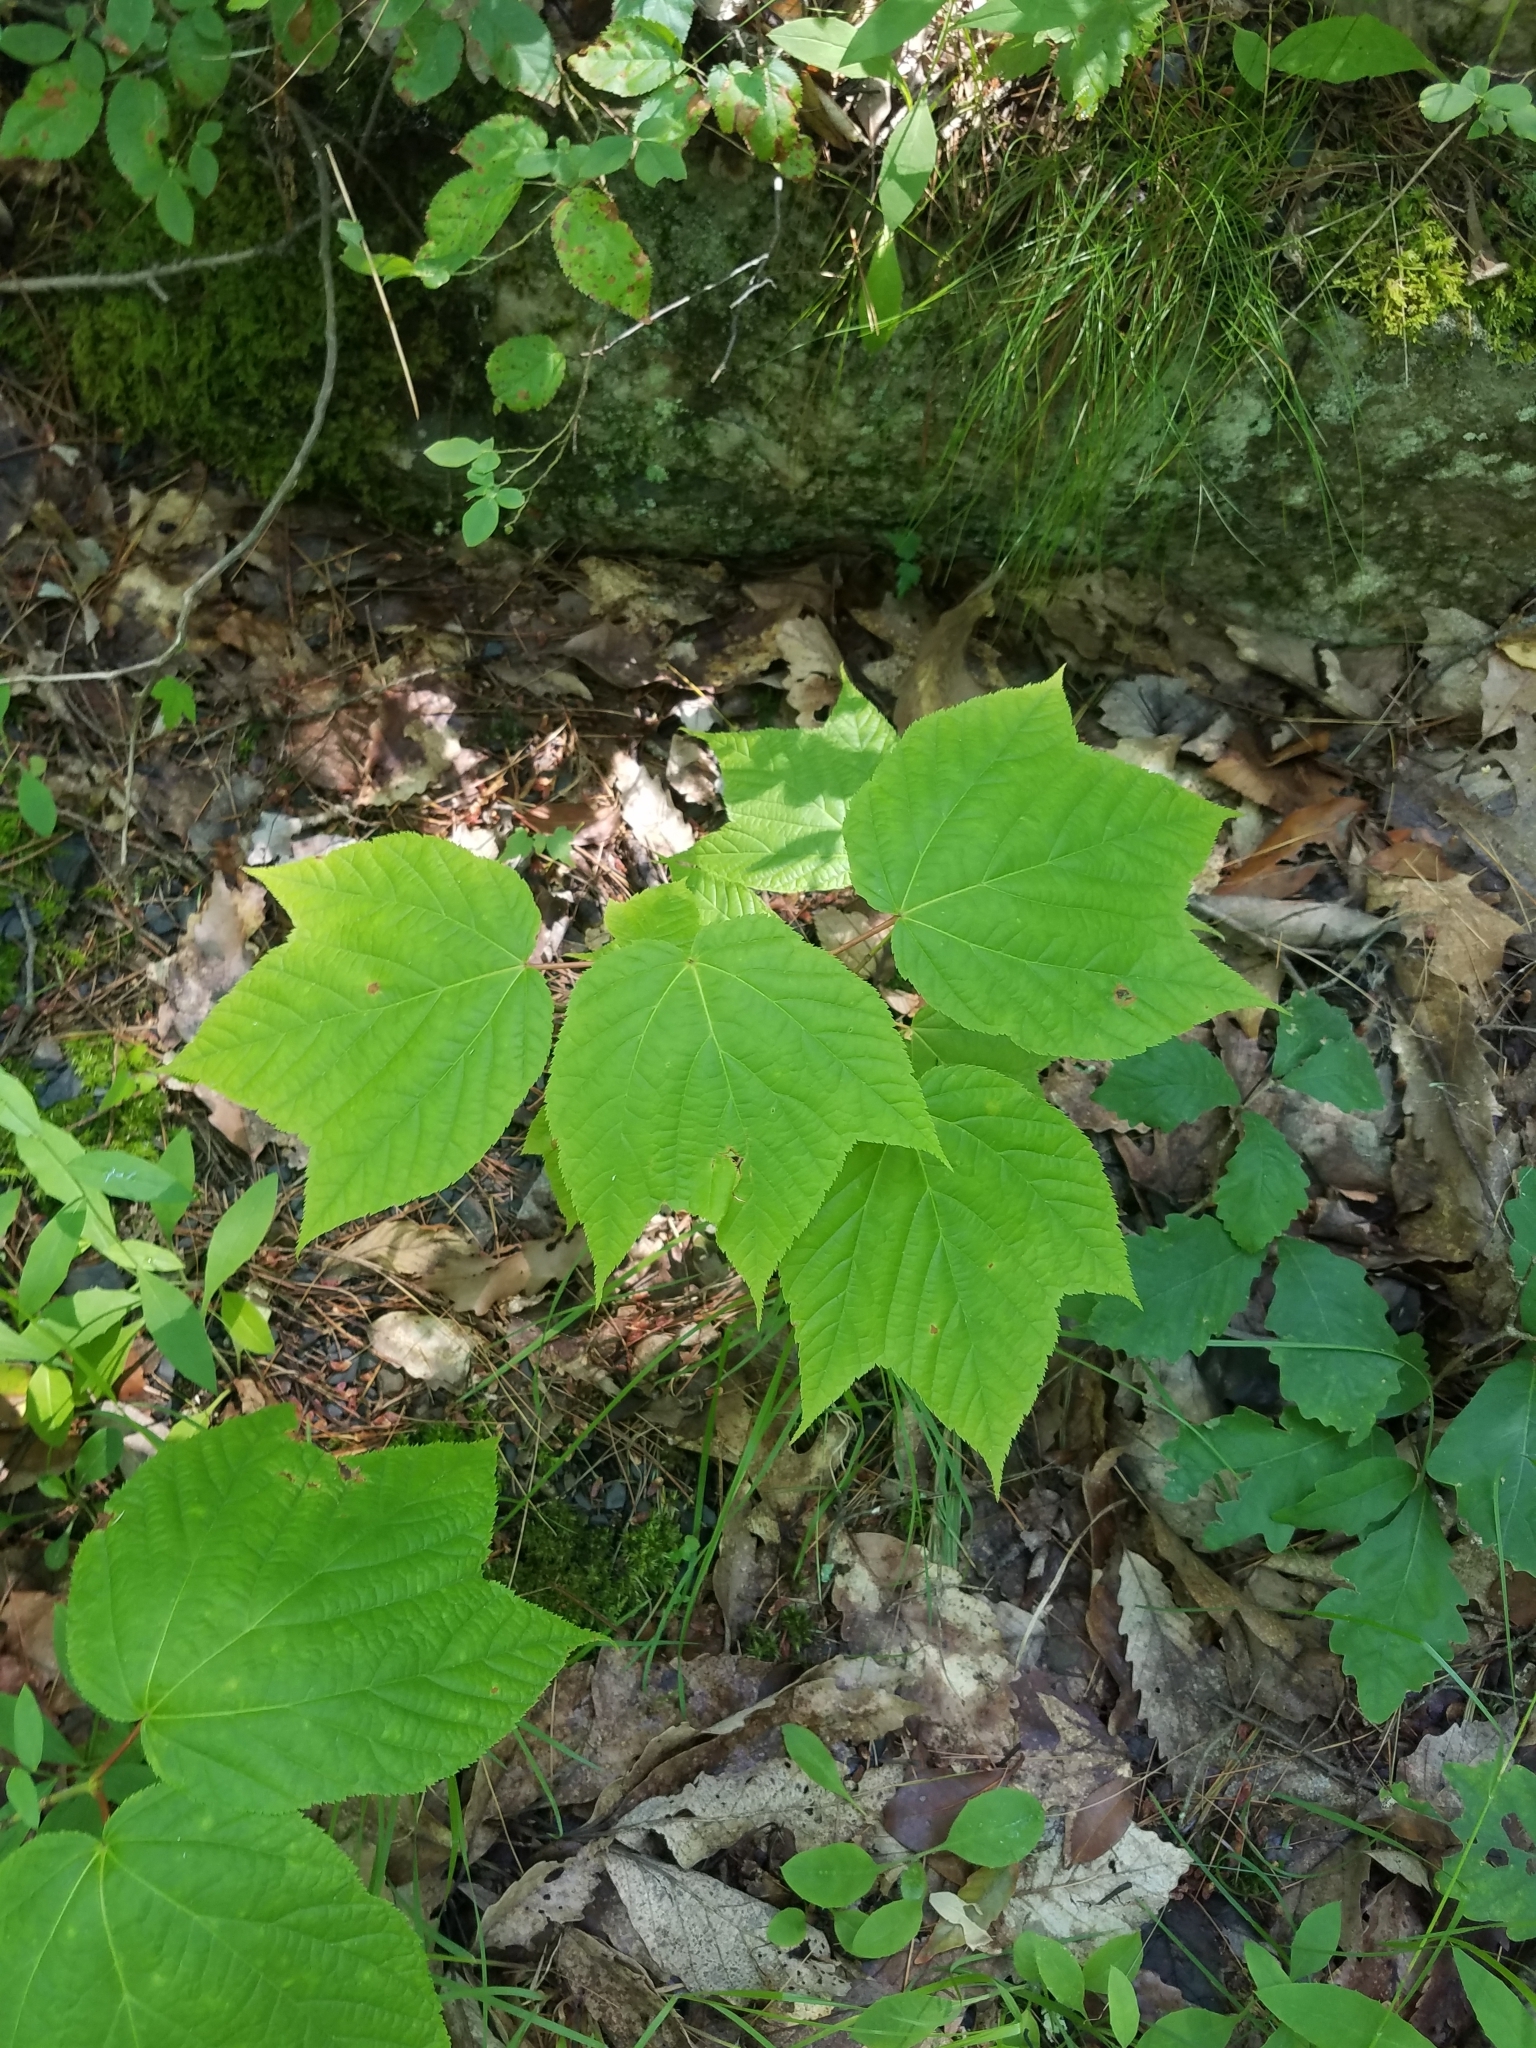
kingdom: Plantae
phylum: Tracheophyta
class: Magnoliopsida
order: Sapindales
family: Sapindaceae
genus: Acer
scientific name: Acer pensylvanicum
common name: Moosewood
